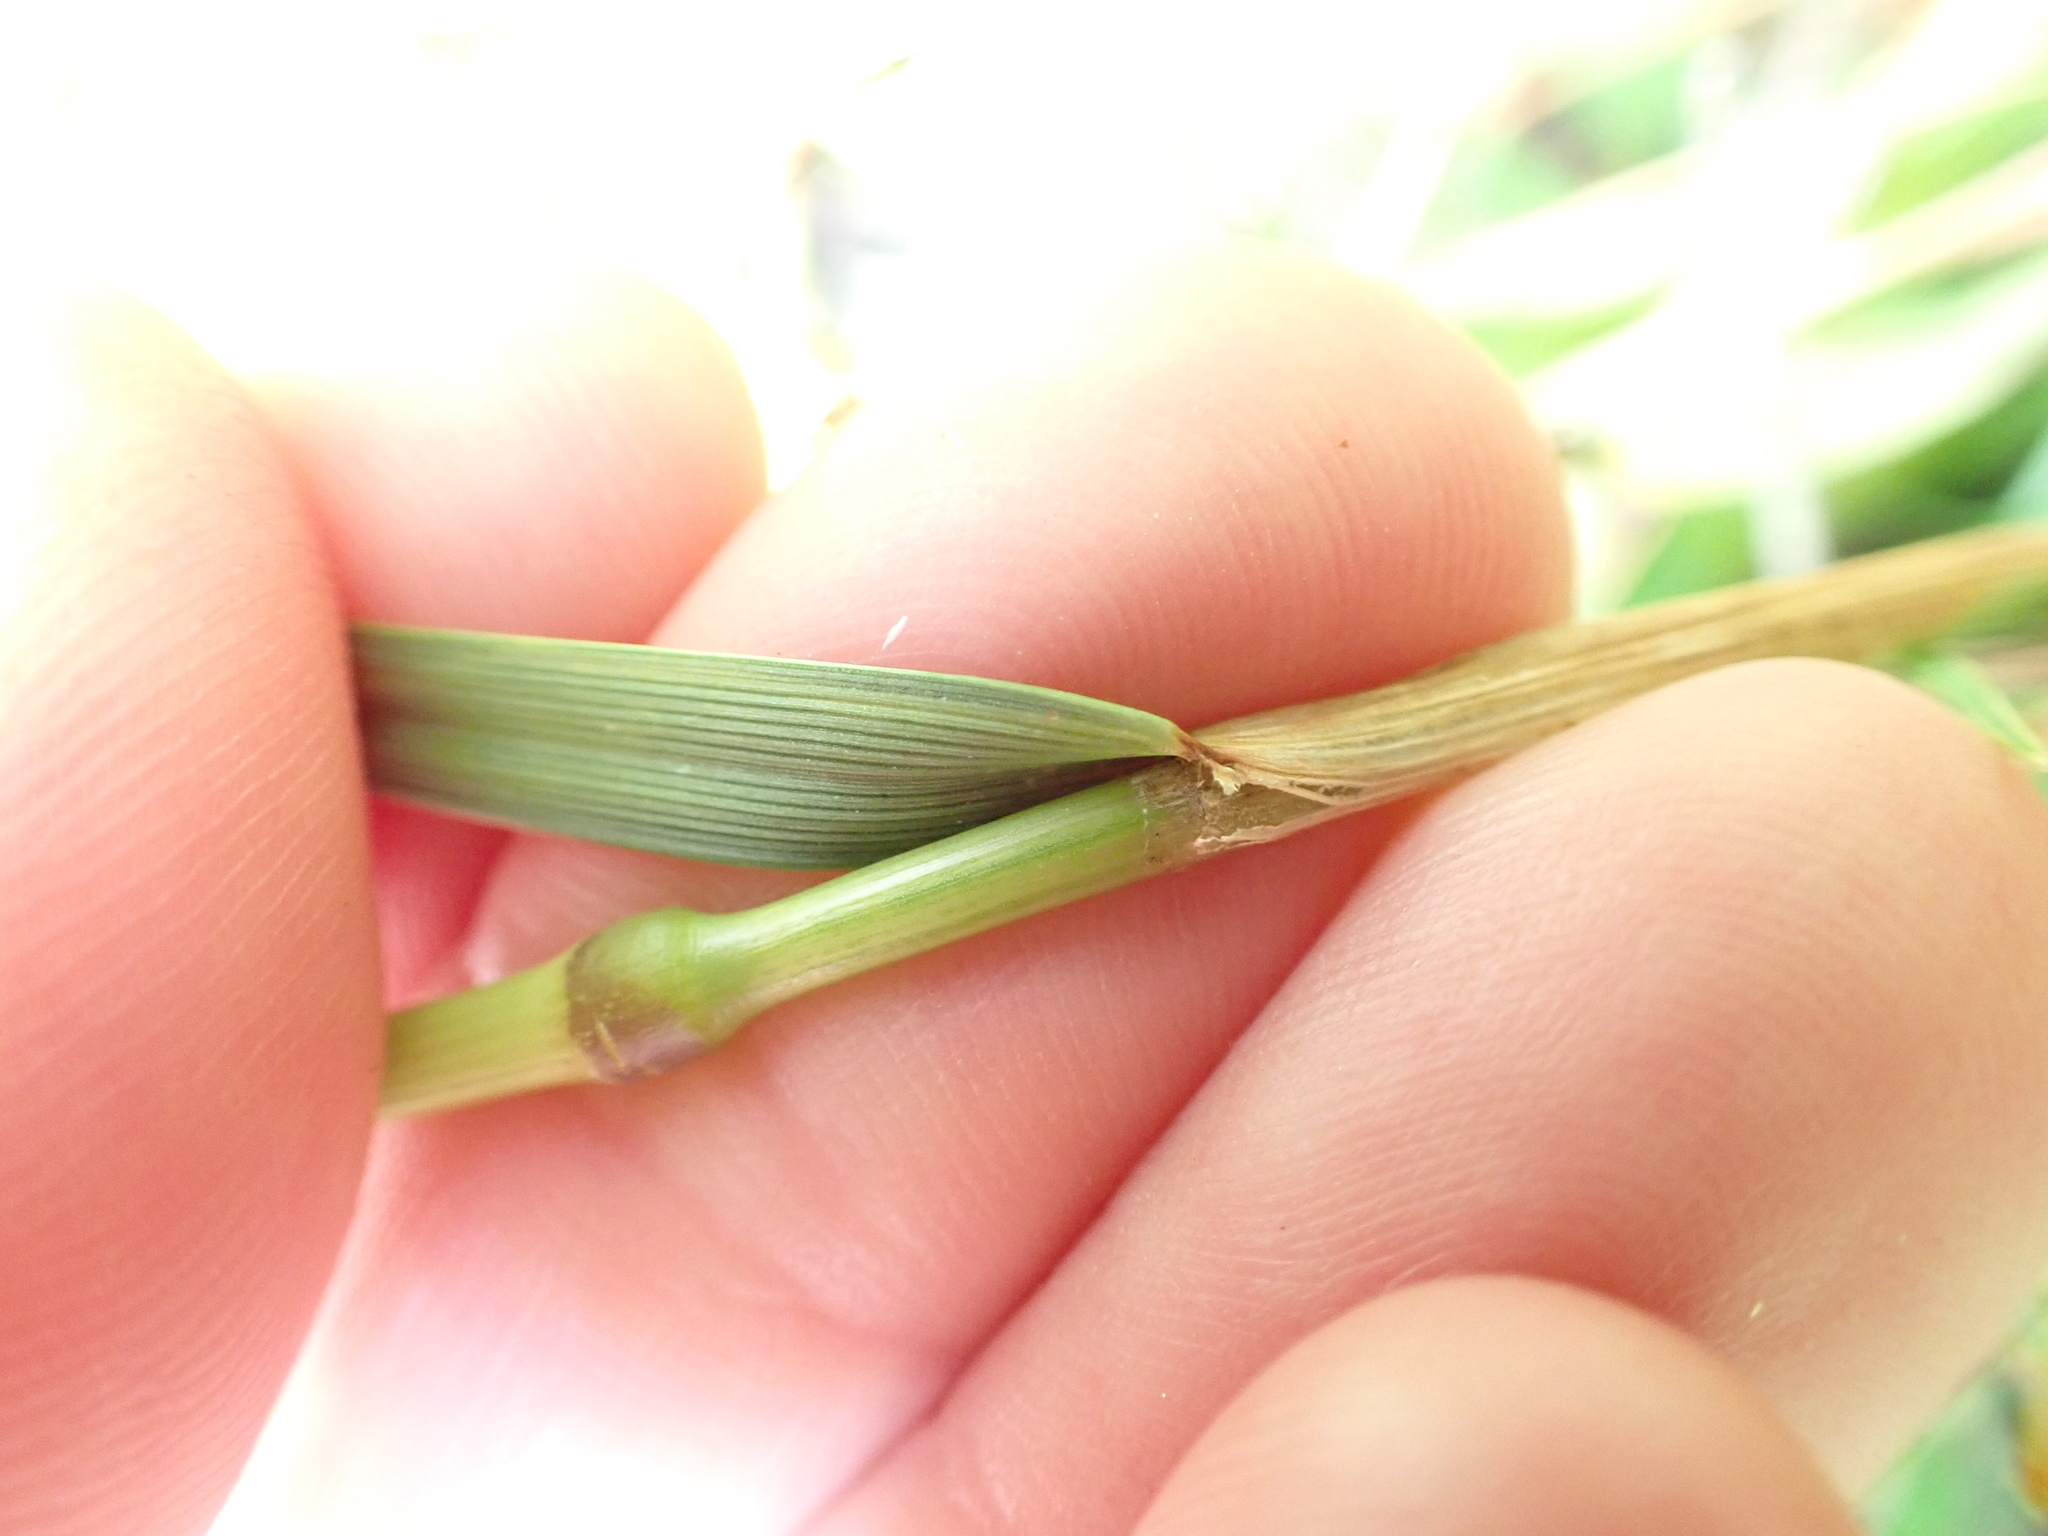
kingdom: Plantae
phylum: Tracheophyta
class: Liliopsida
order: Poales
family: Poaceae
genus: Cynosurus
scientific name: Cynosurus cristatus
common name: Crested dog's-tail
